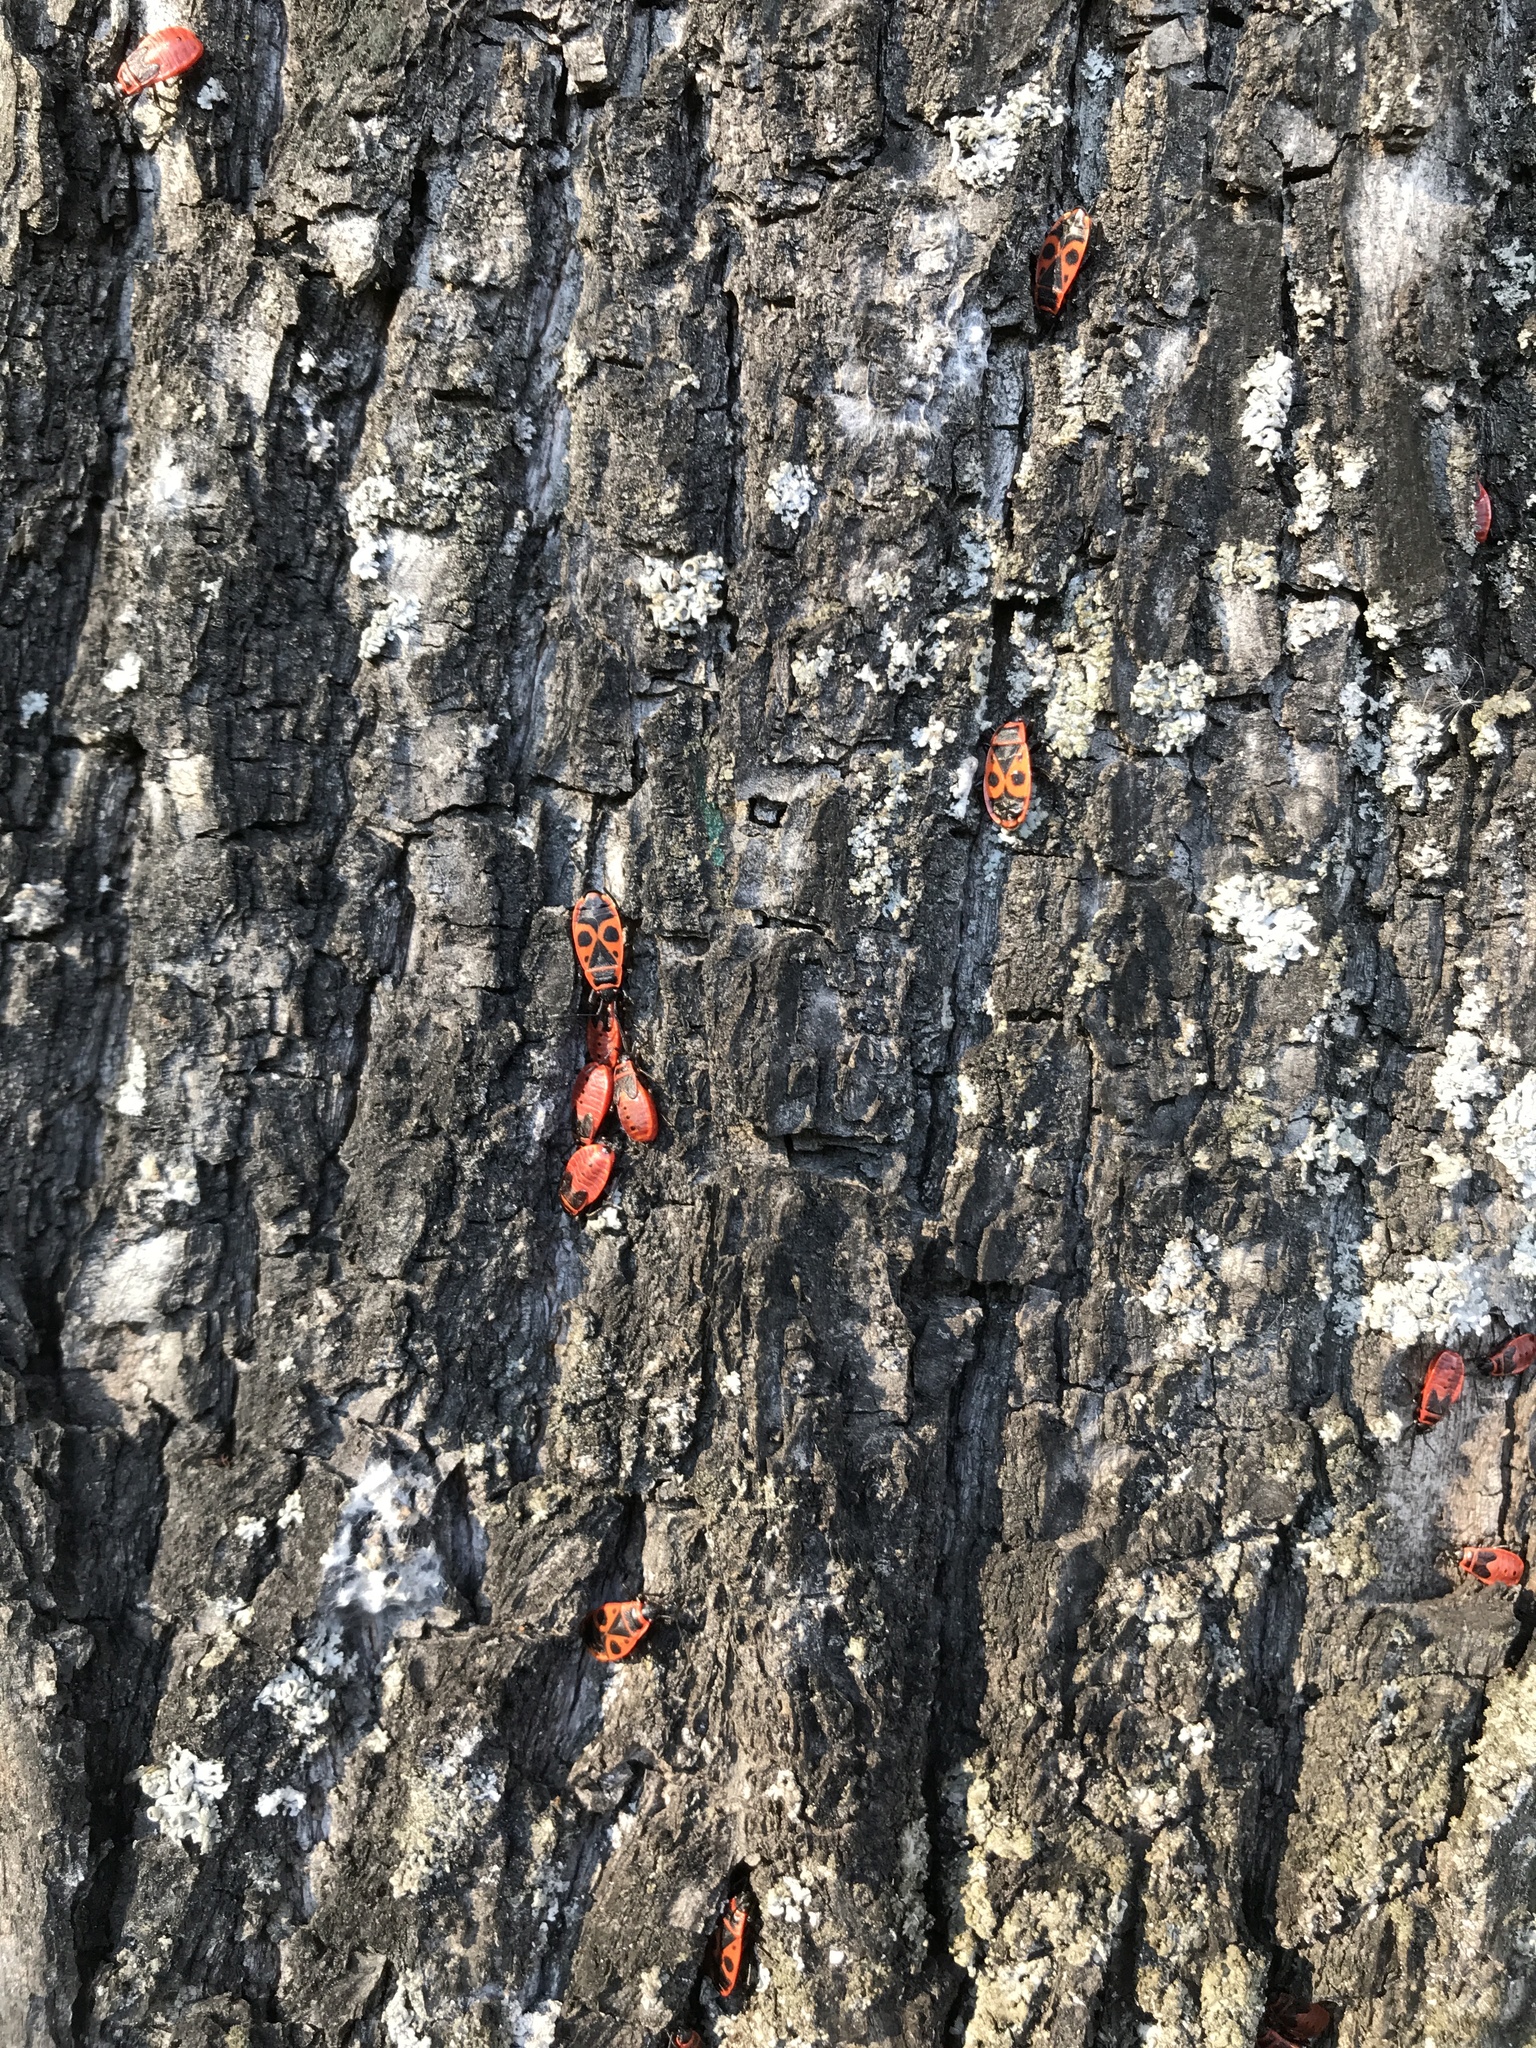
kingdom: Animalia
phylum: Arthropoda
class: Insecta
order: Hemiptera
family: Pyrrhocoridae
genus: Pyrrhocoris
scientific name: Pyrrhocoris apterus
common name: Firebug
